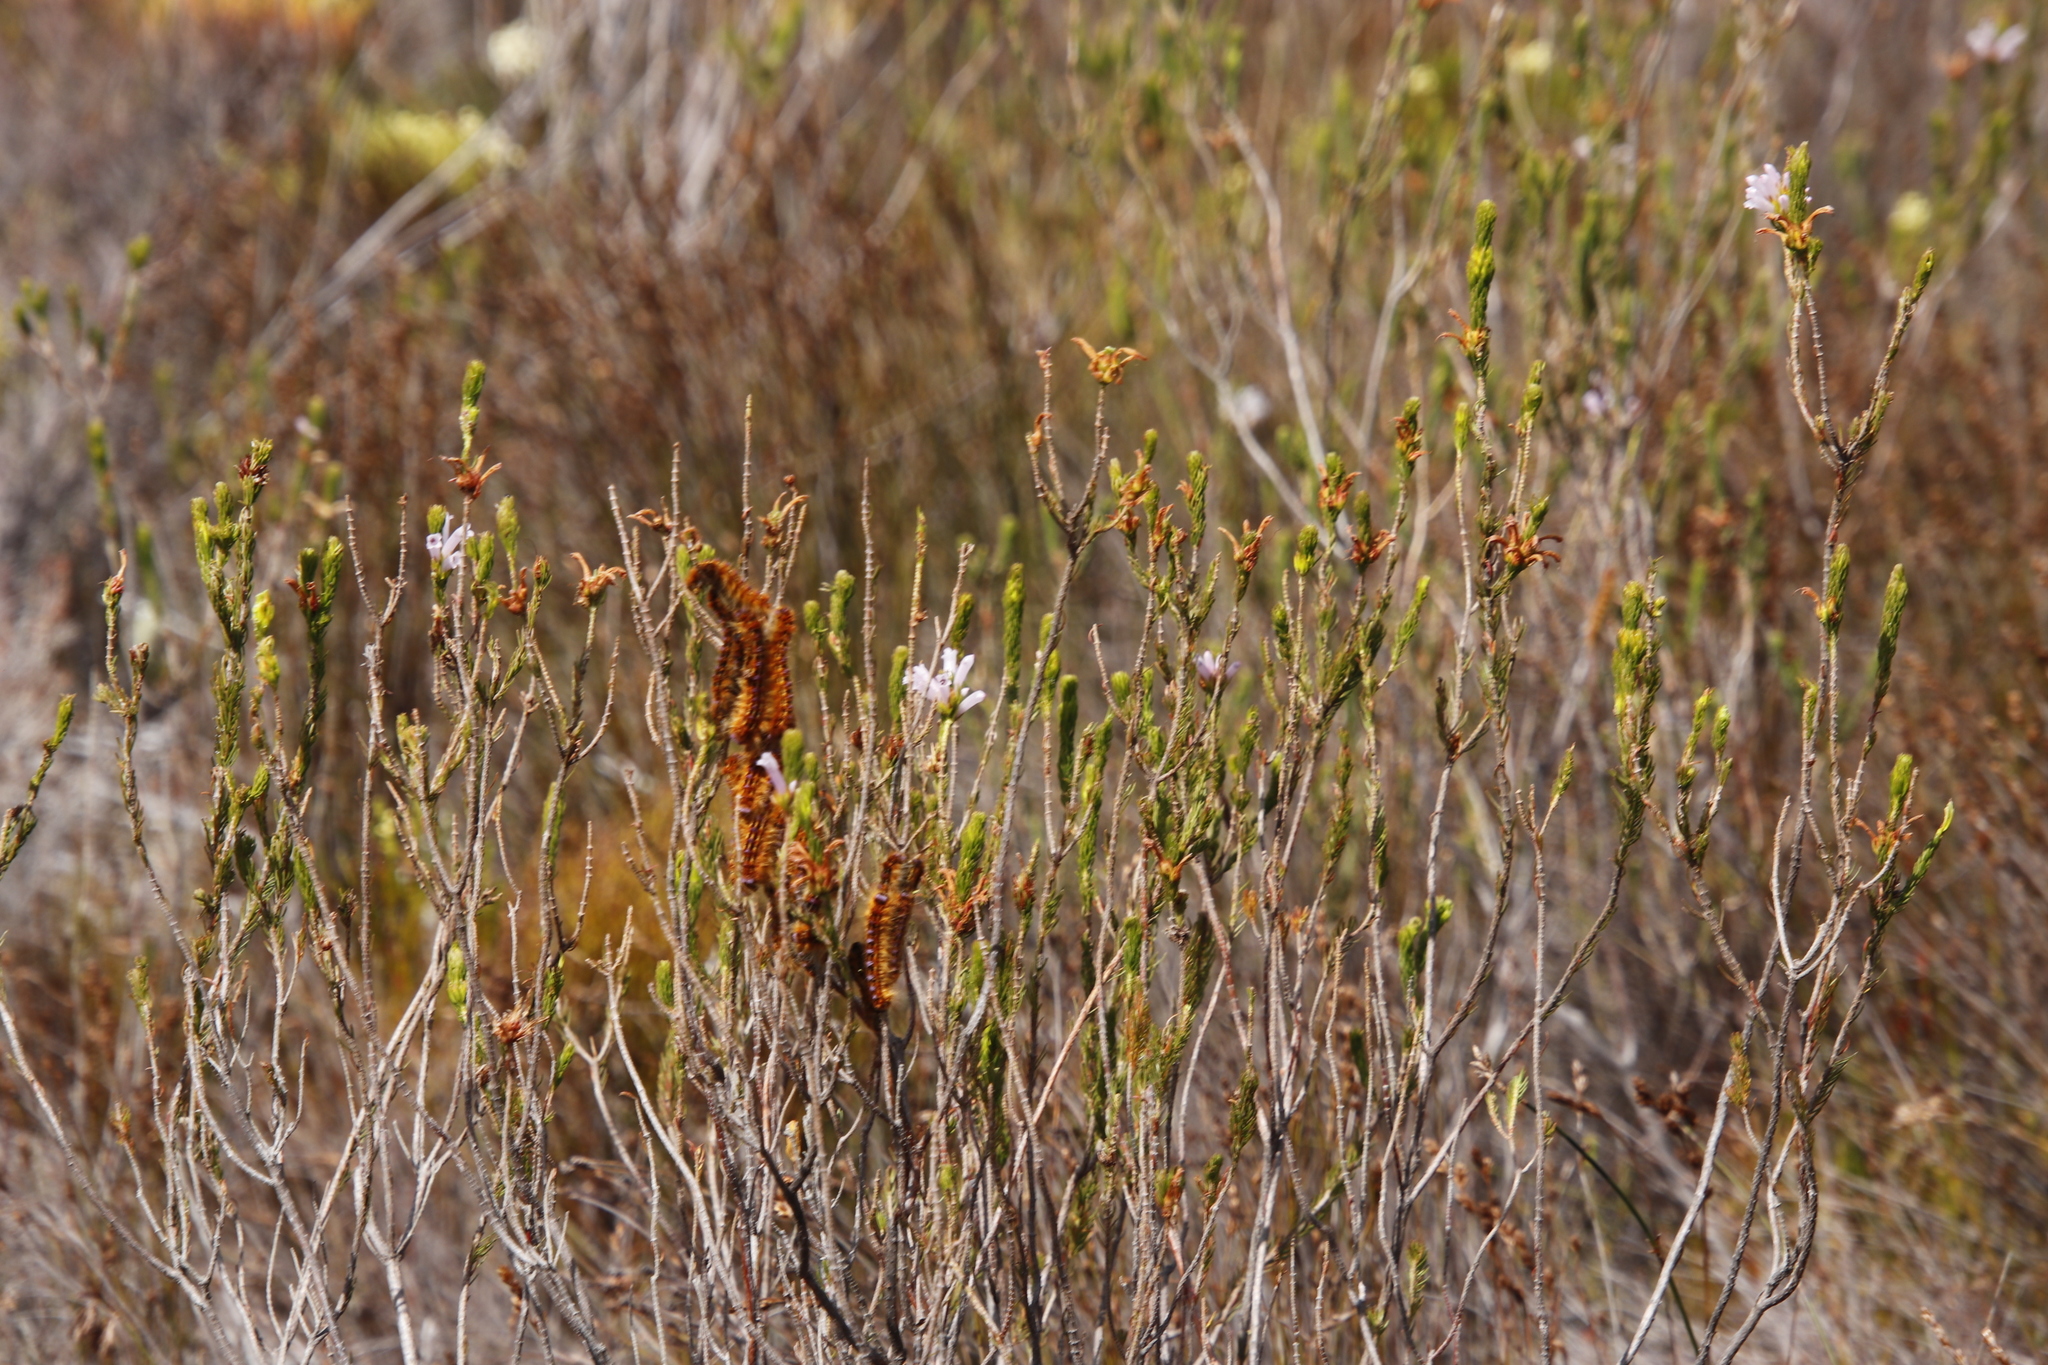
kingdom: Animalia
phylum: Arthropoda
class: Insecta
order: Lepidoptera
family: Lasiocampidae
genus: Eutricha
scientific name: Eutricha bifascia
